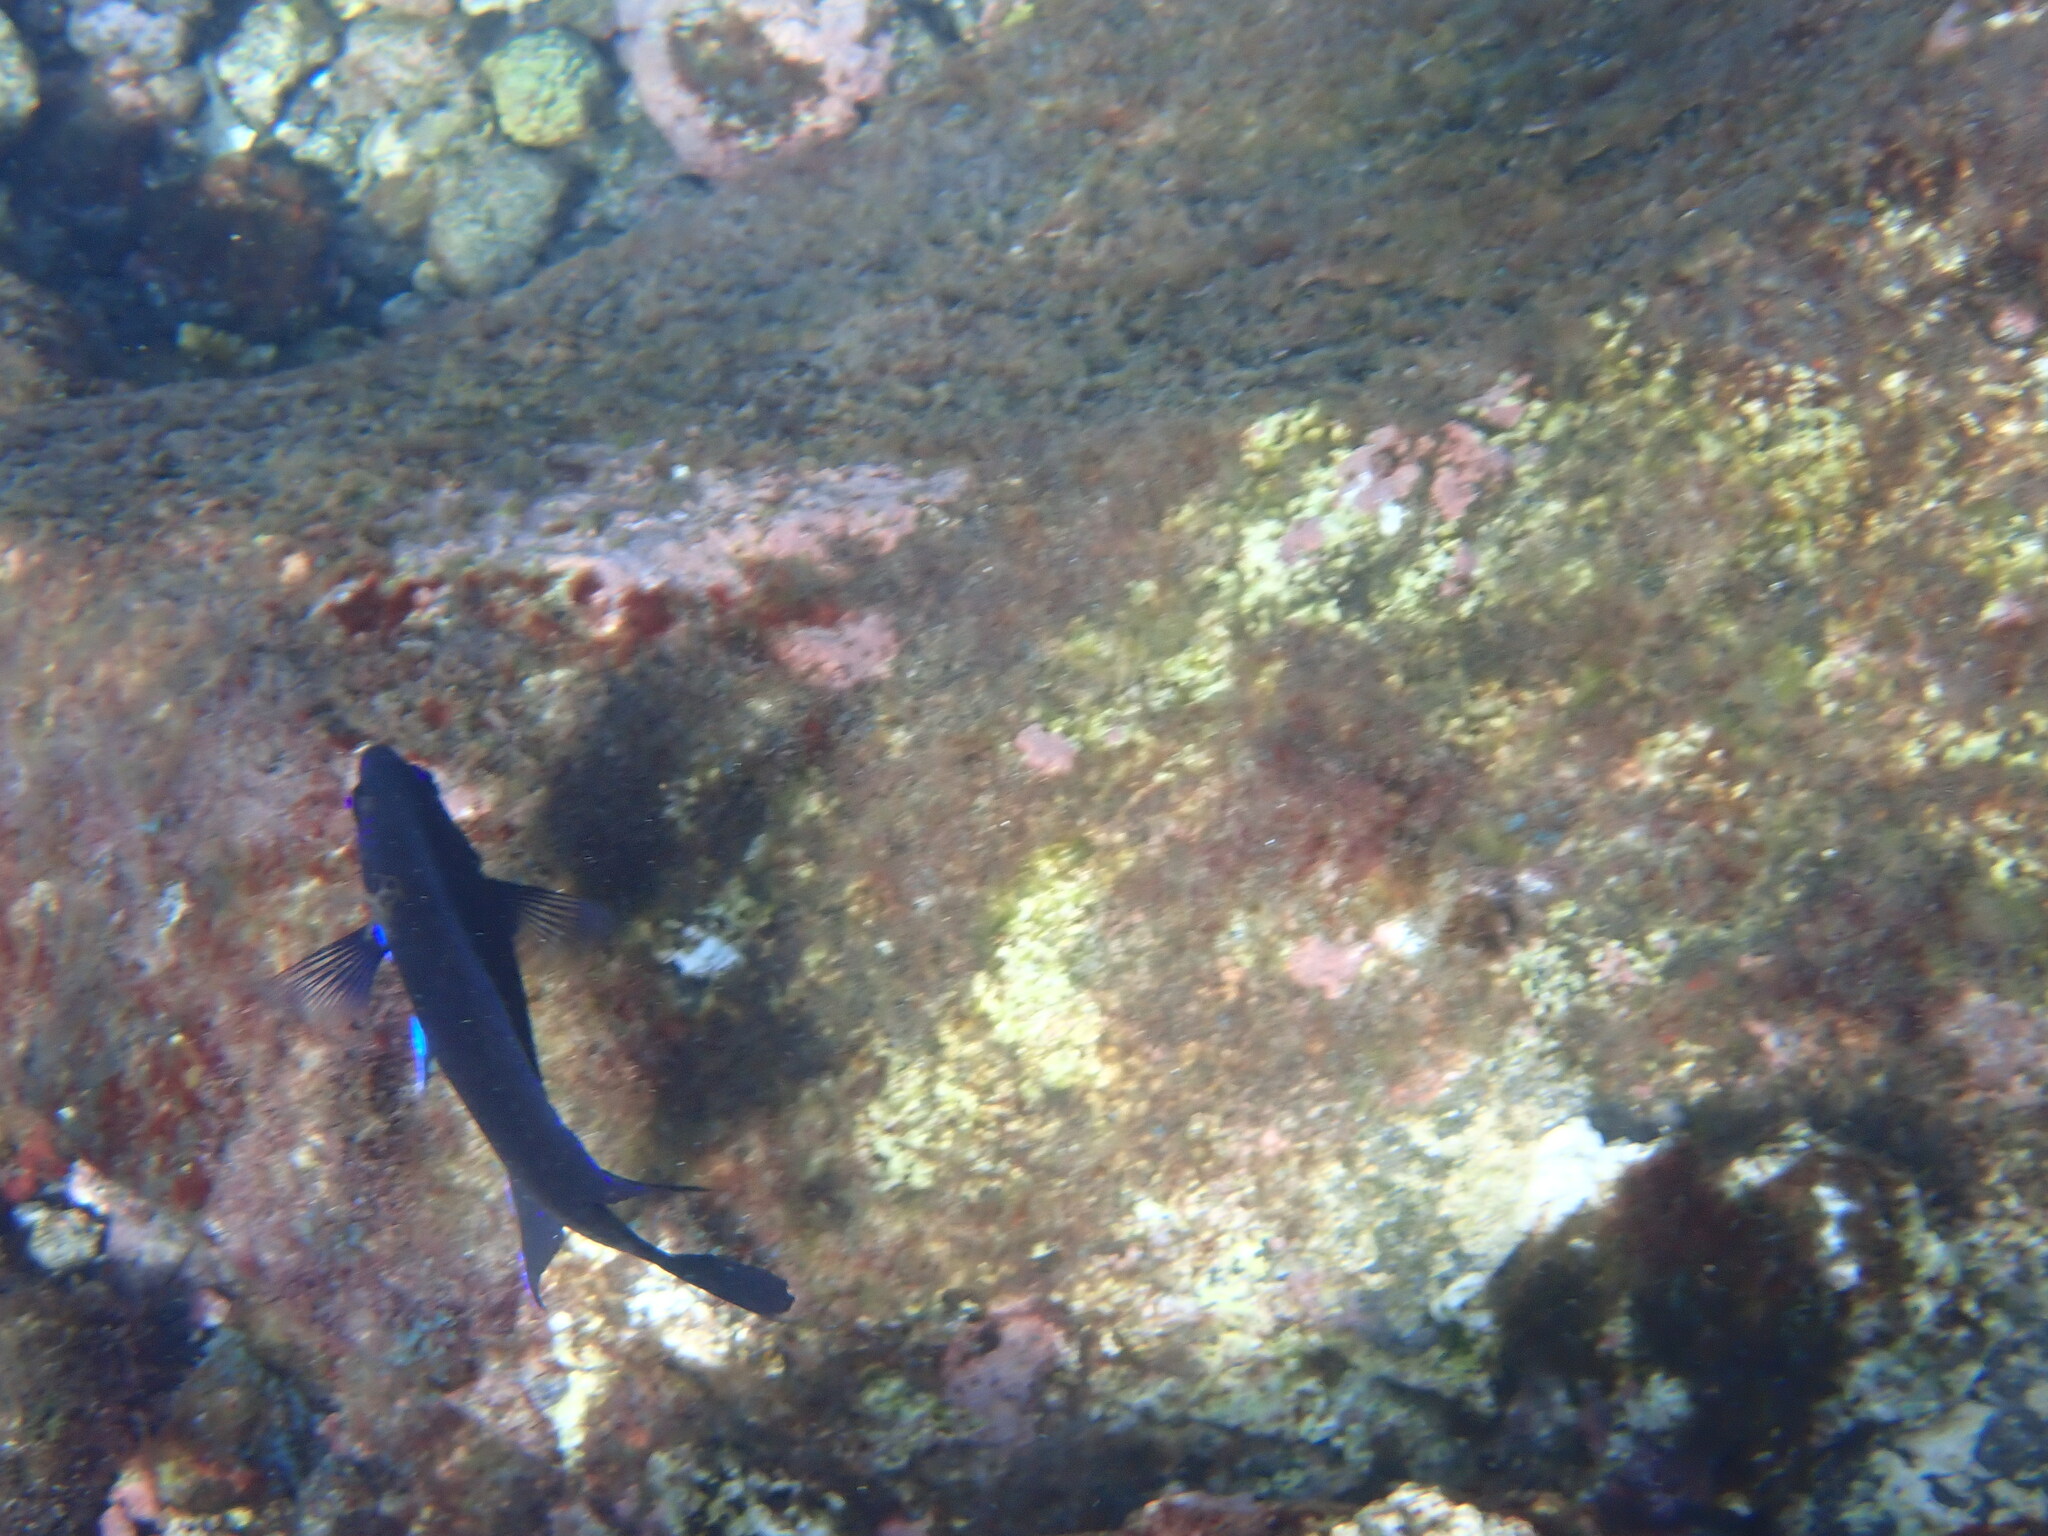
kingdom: Animalia
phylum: Chordata
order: Perciformes
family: Pomacentridae
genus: Similiparma
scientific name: Similiparma lurida
